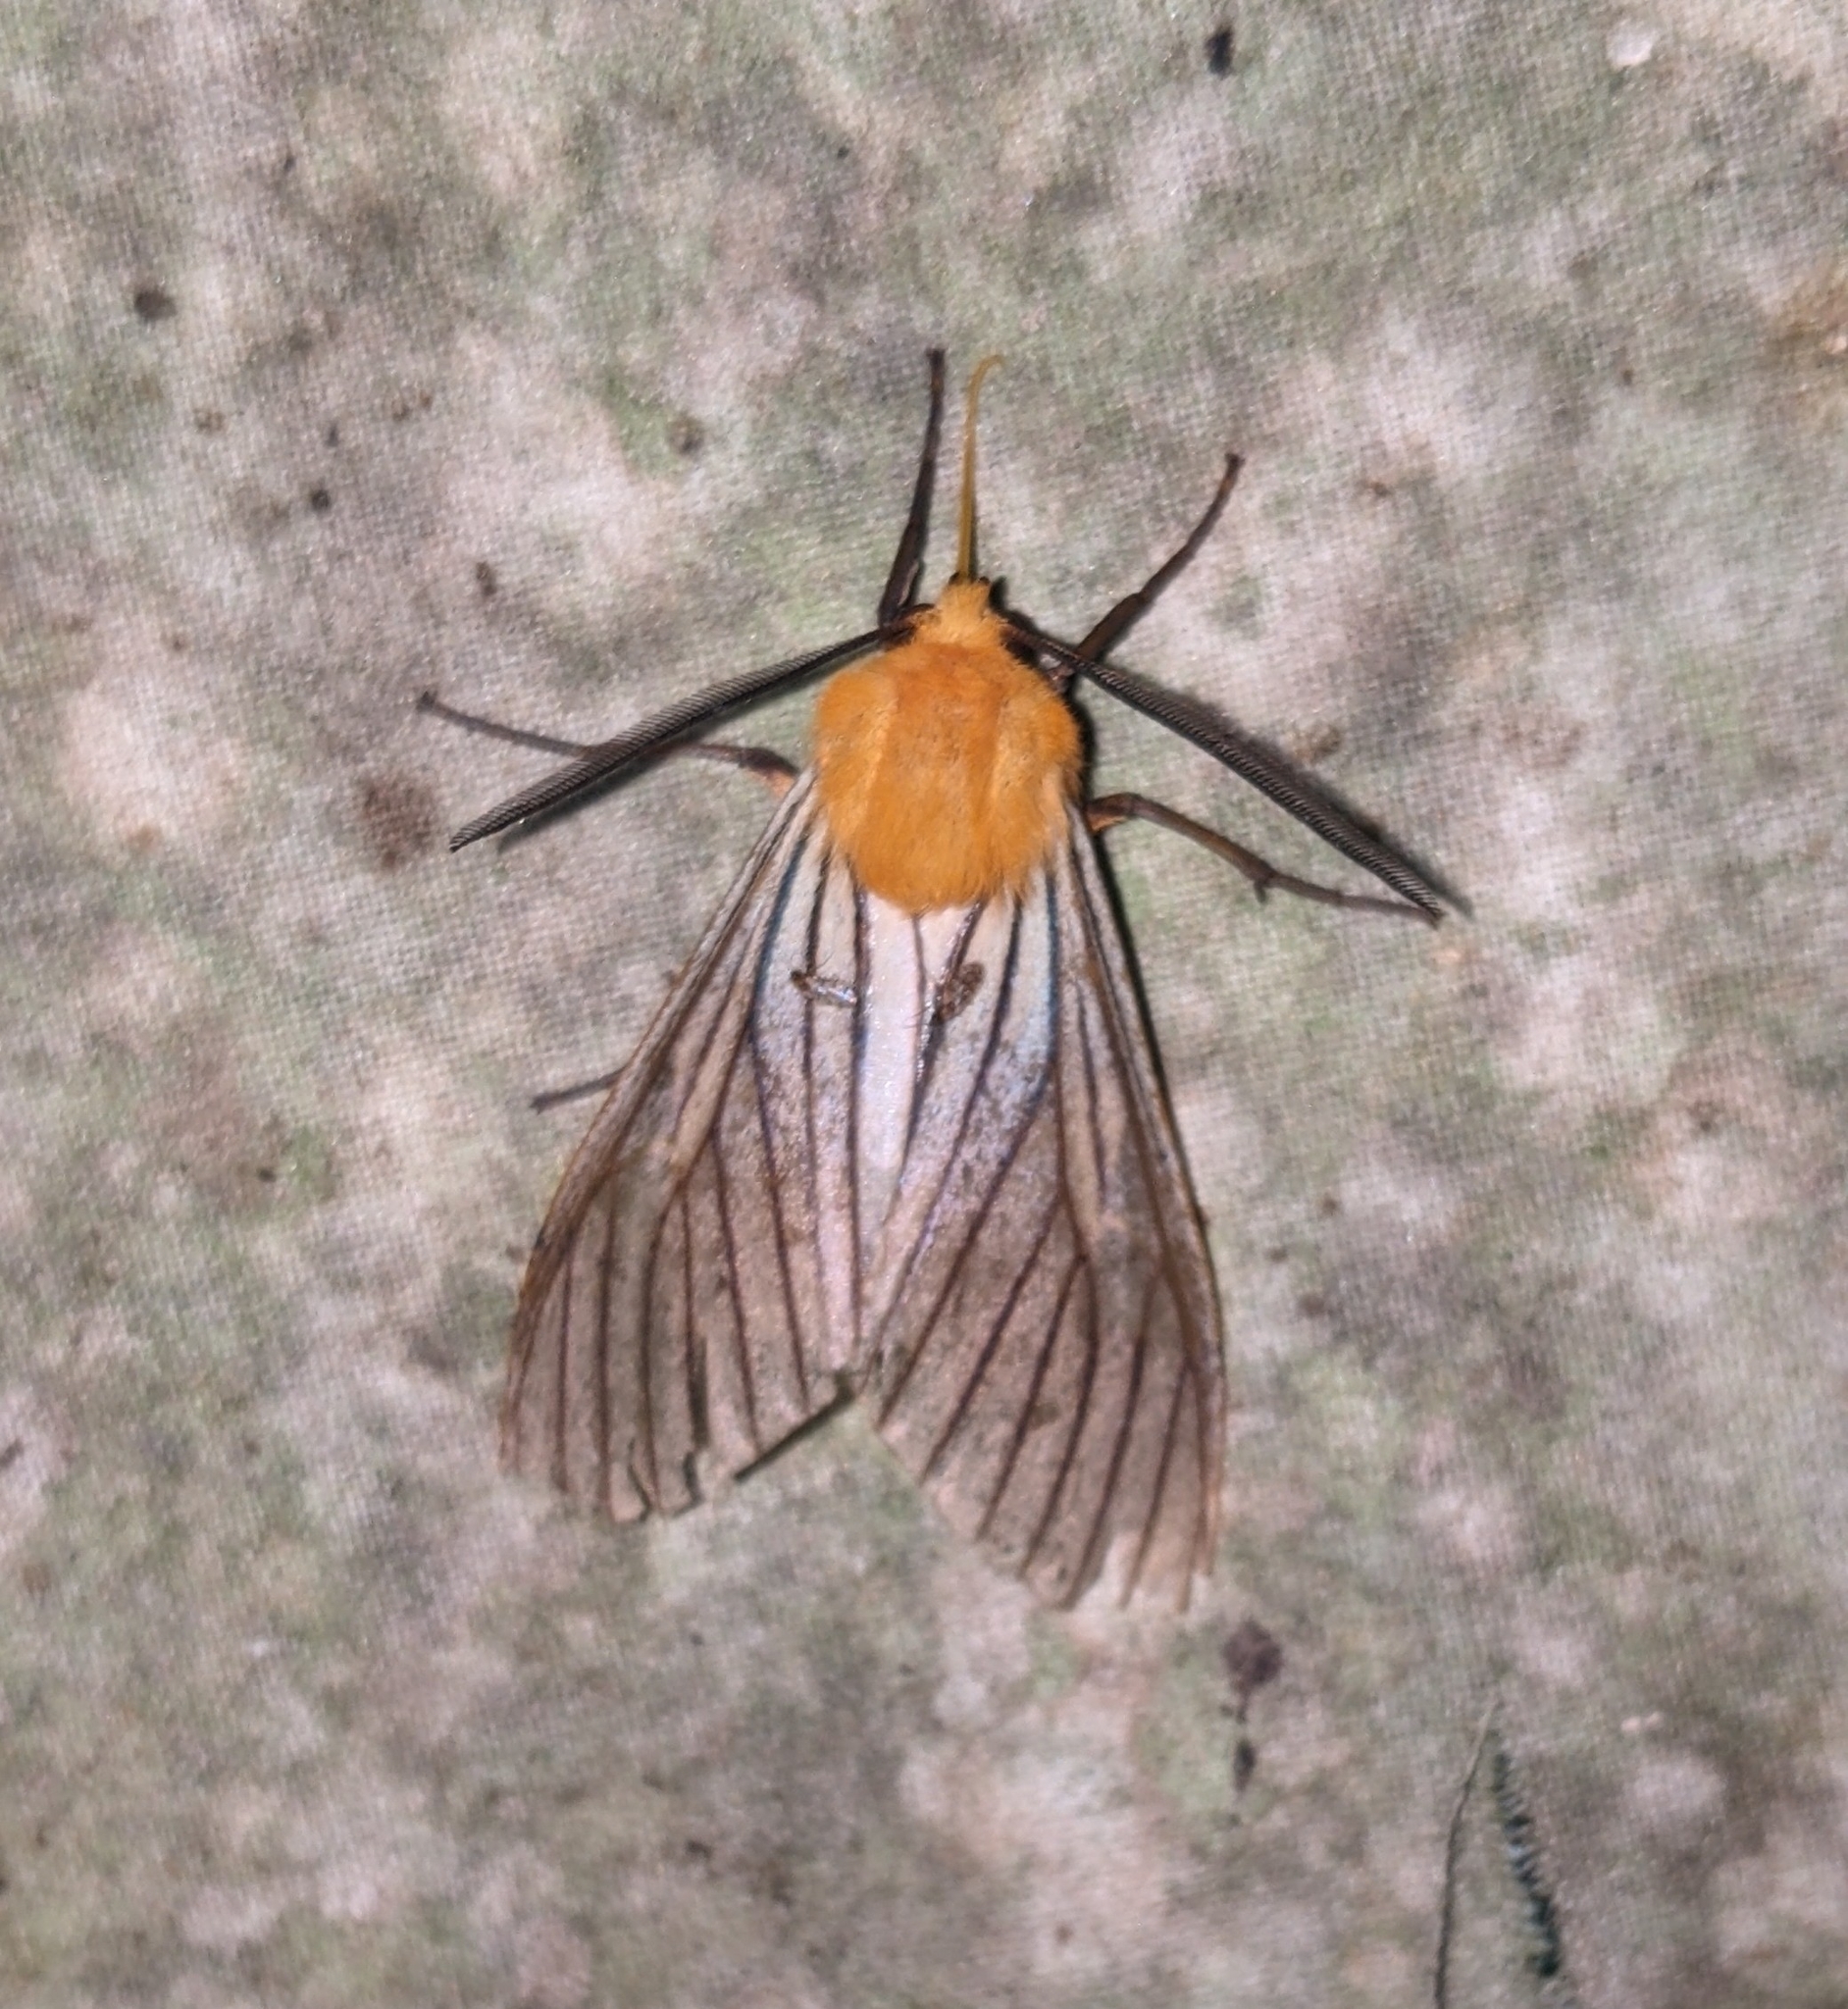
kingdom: Animalia
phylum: Arthropoda
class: Insecta
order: Lepidoptera
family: Erebidae
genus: Pseudischnocampa
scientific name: Pseudischnocampa humosa
